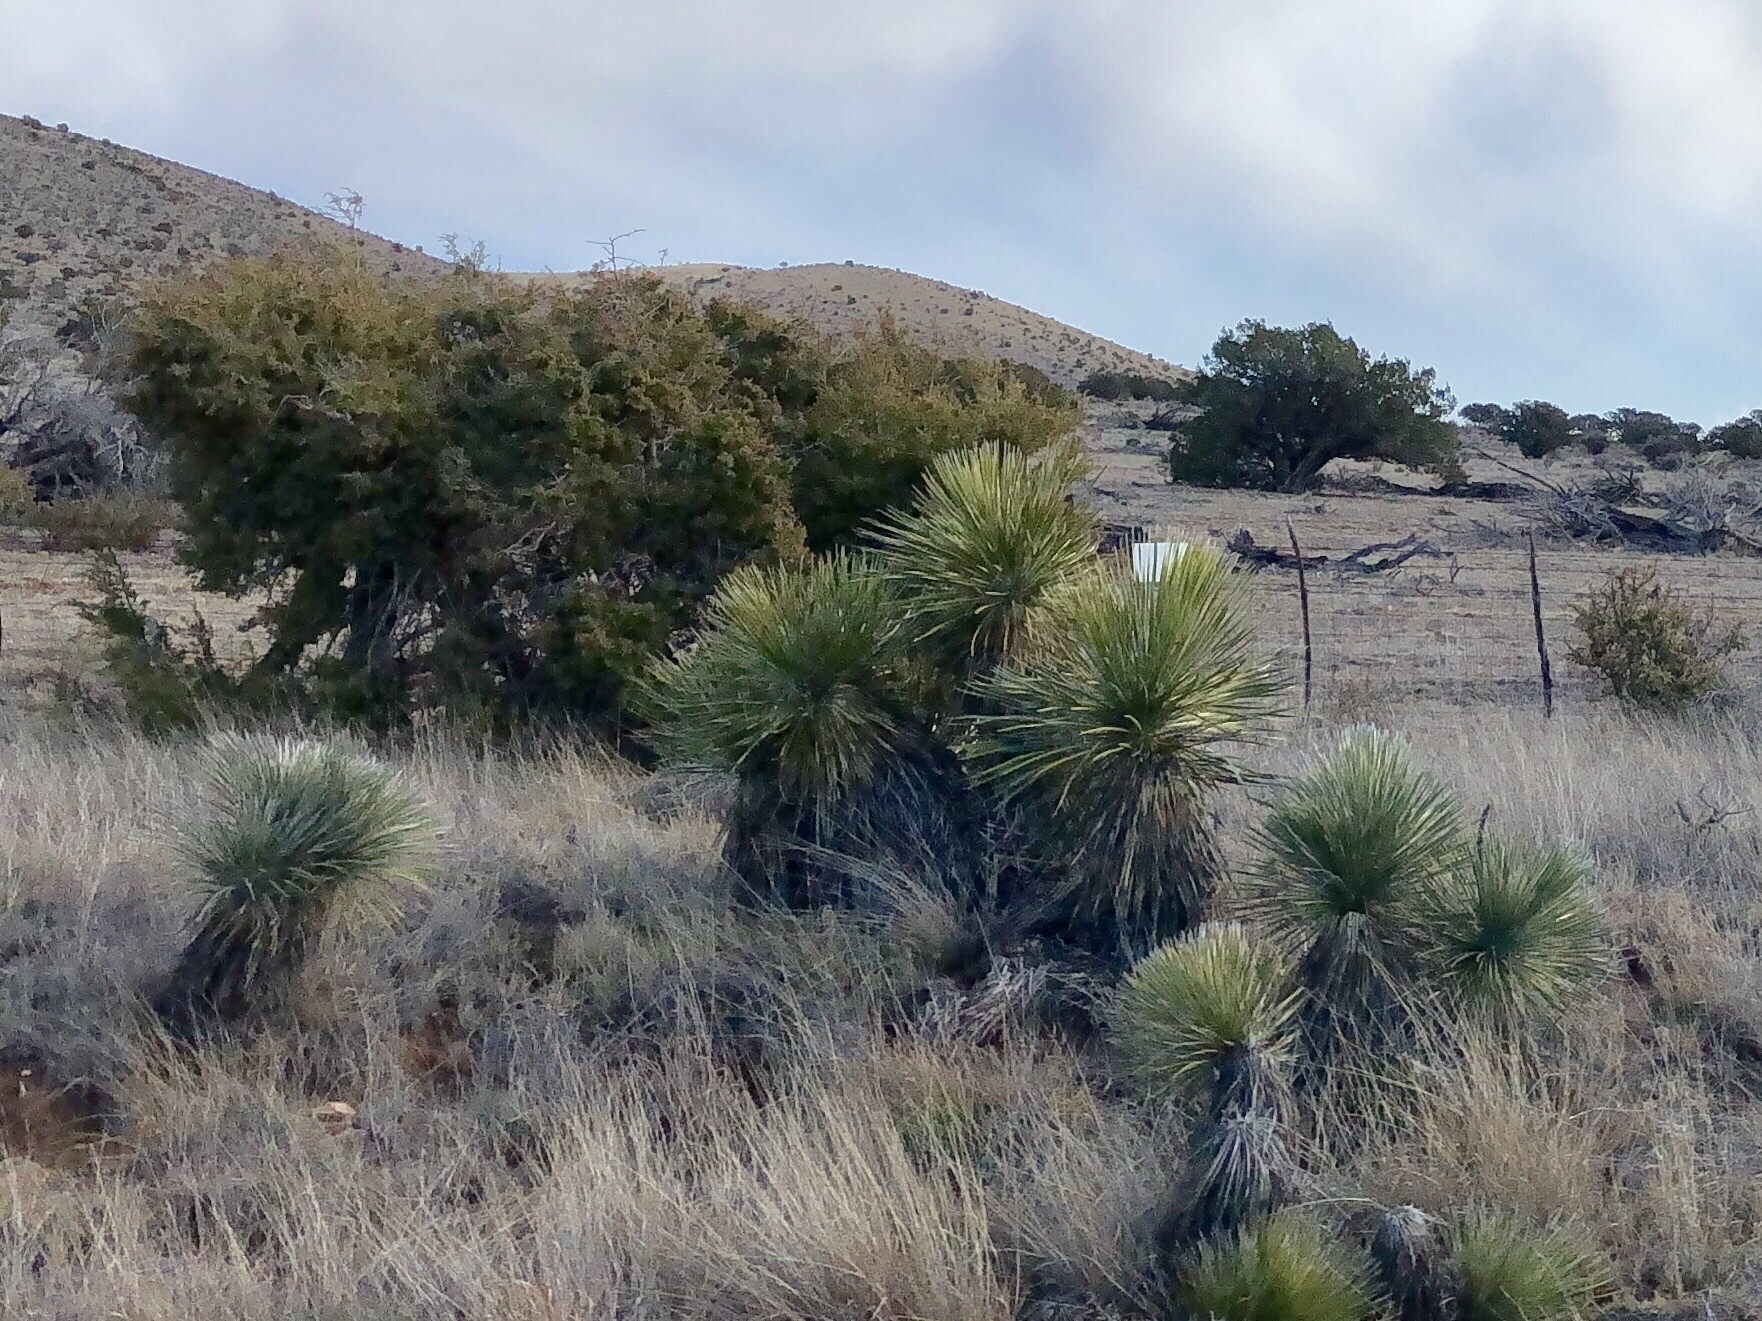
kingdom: Plantae
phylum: Tracheophyta
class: Liliopsida
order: Asparagales
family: Asparagaceae
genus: Yucca
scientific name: Yucca elata
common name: Palmella
